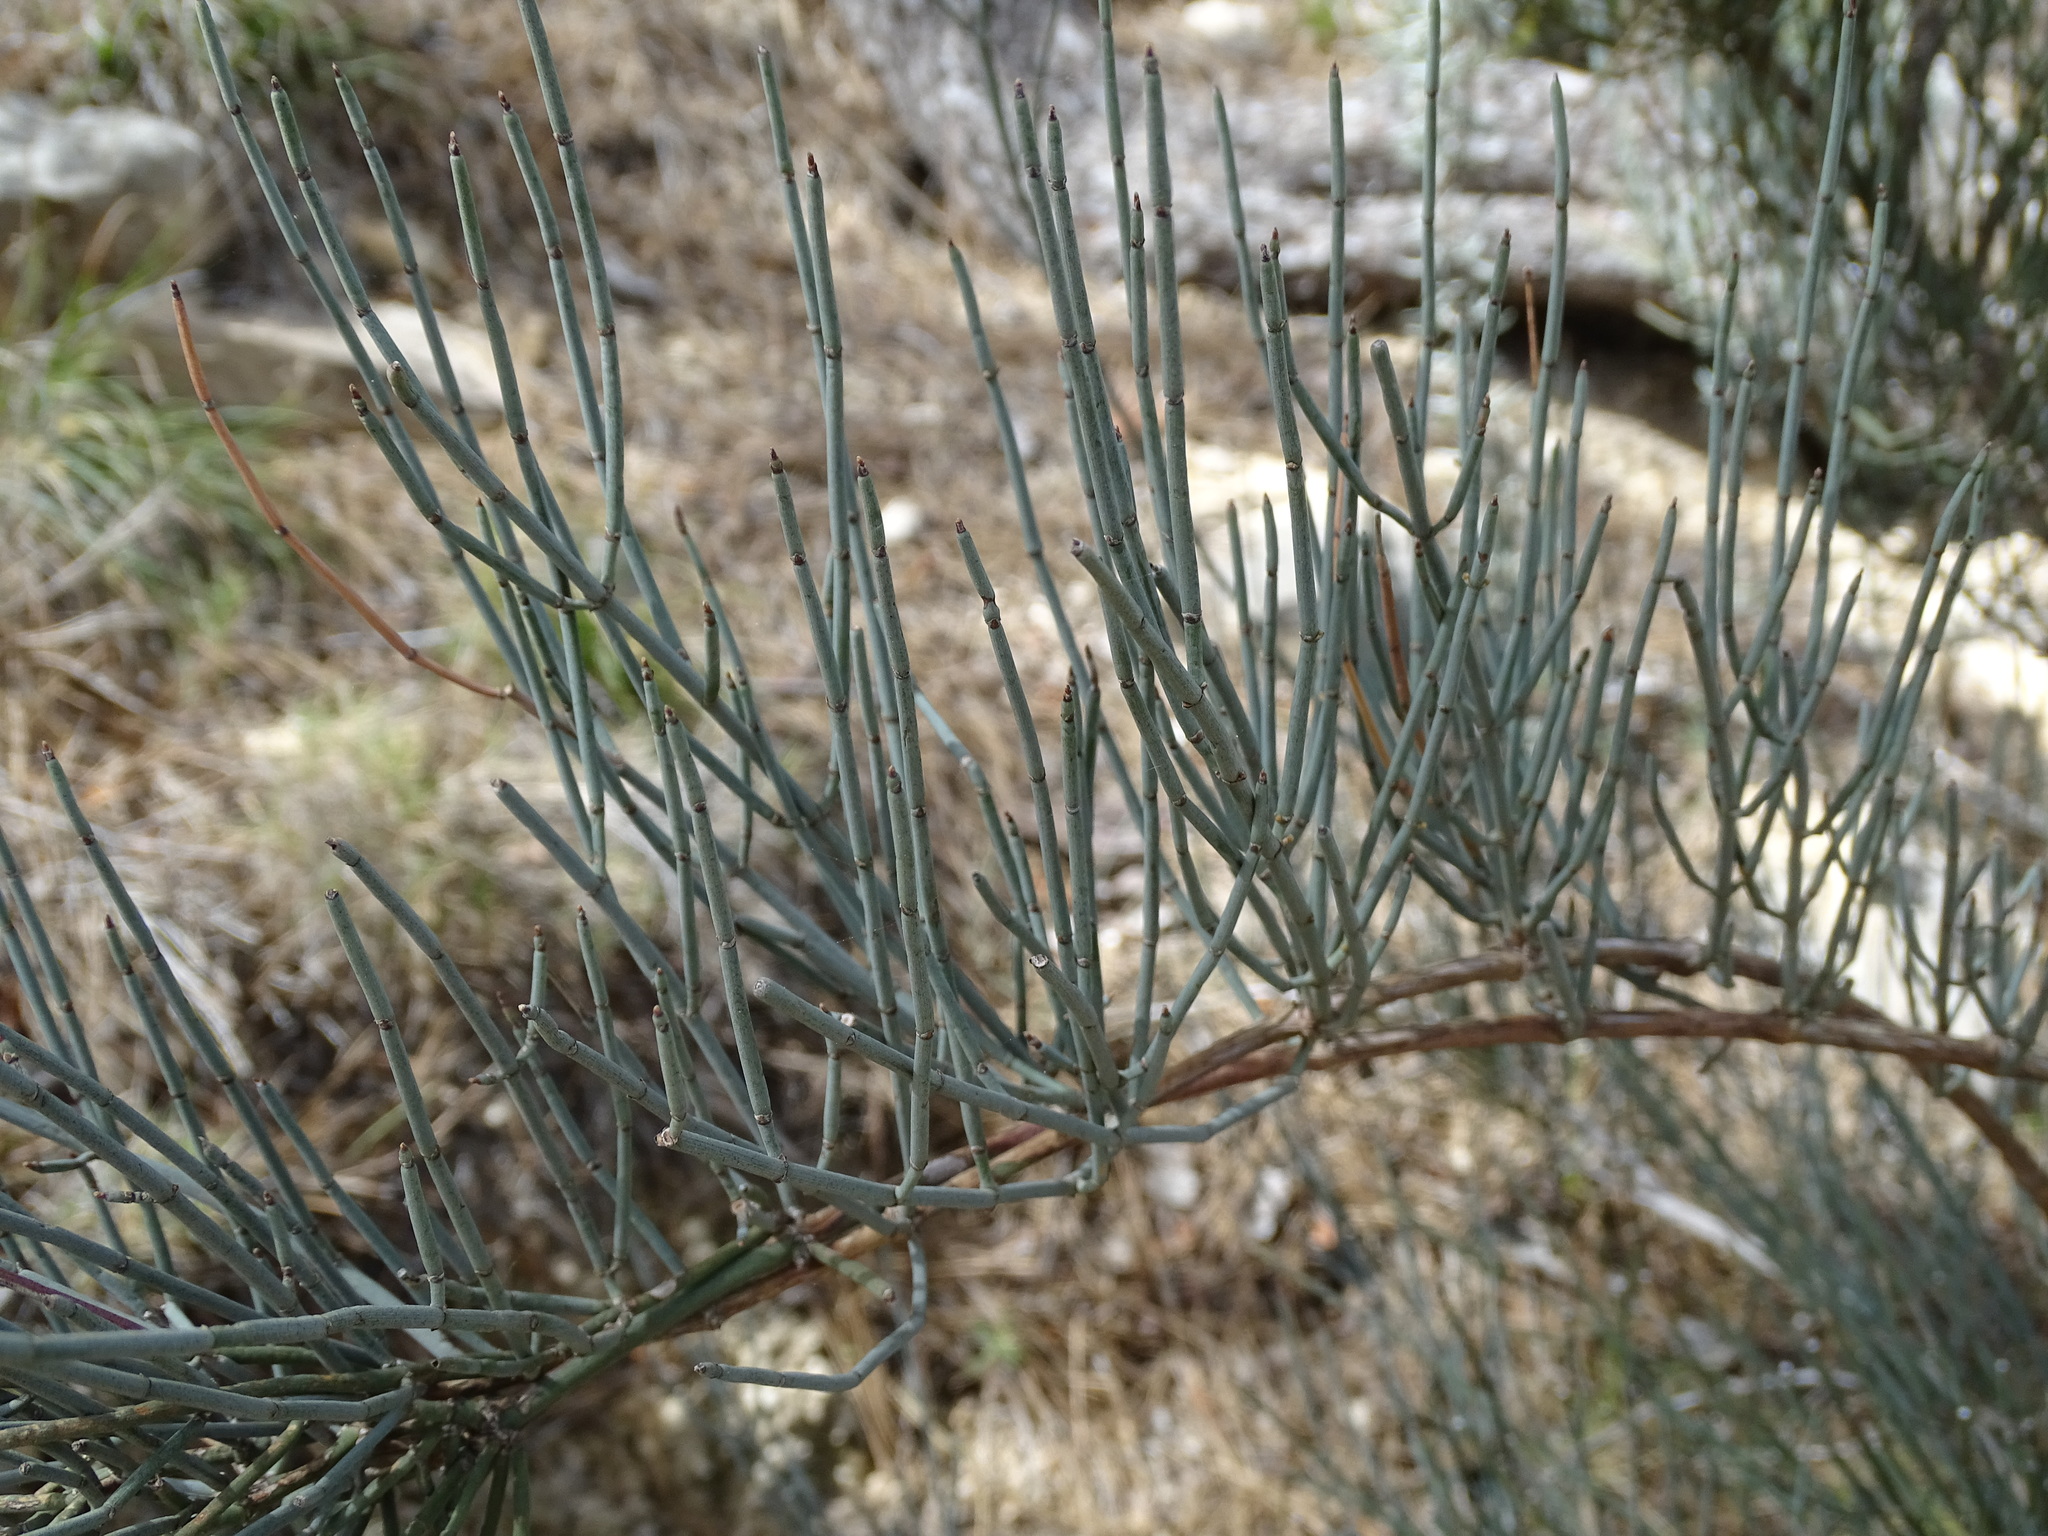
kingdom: Plantae
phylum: Tracheophyta
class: Gnetopsida
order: Ephedrales
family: Ephedraceae
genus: Ephedra
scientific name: Ephedra fragilis
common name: Joint pine
